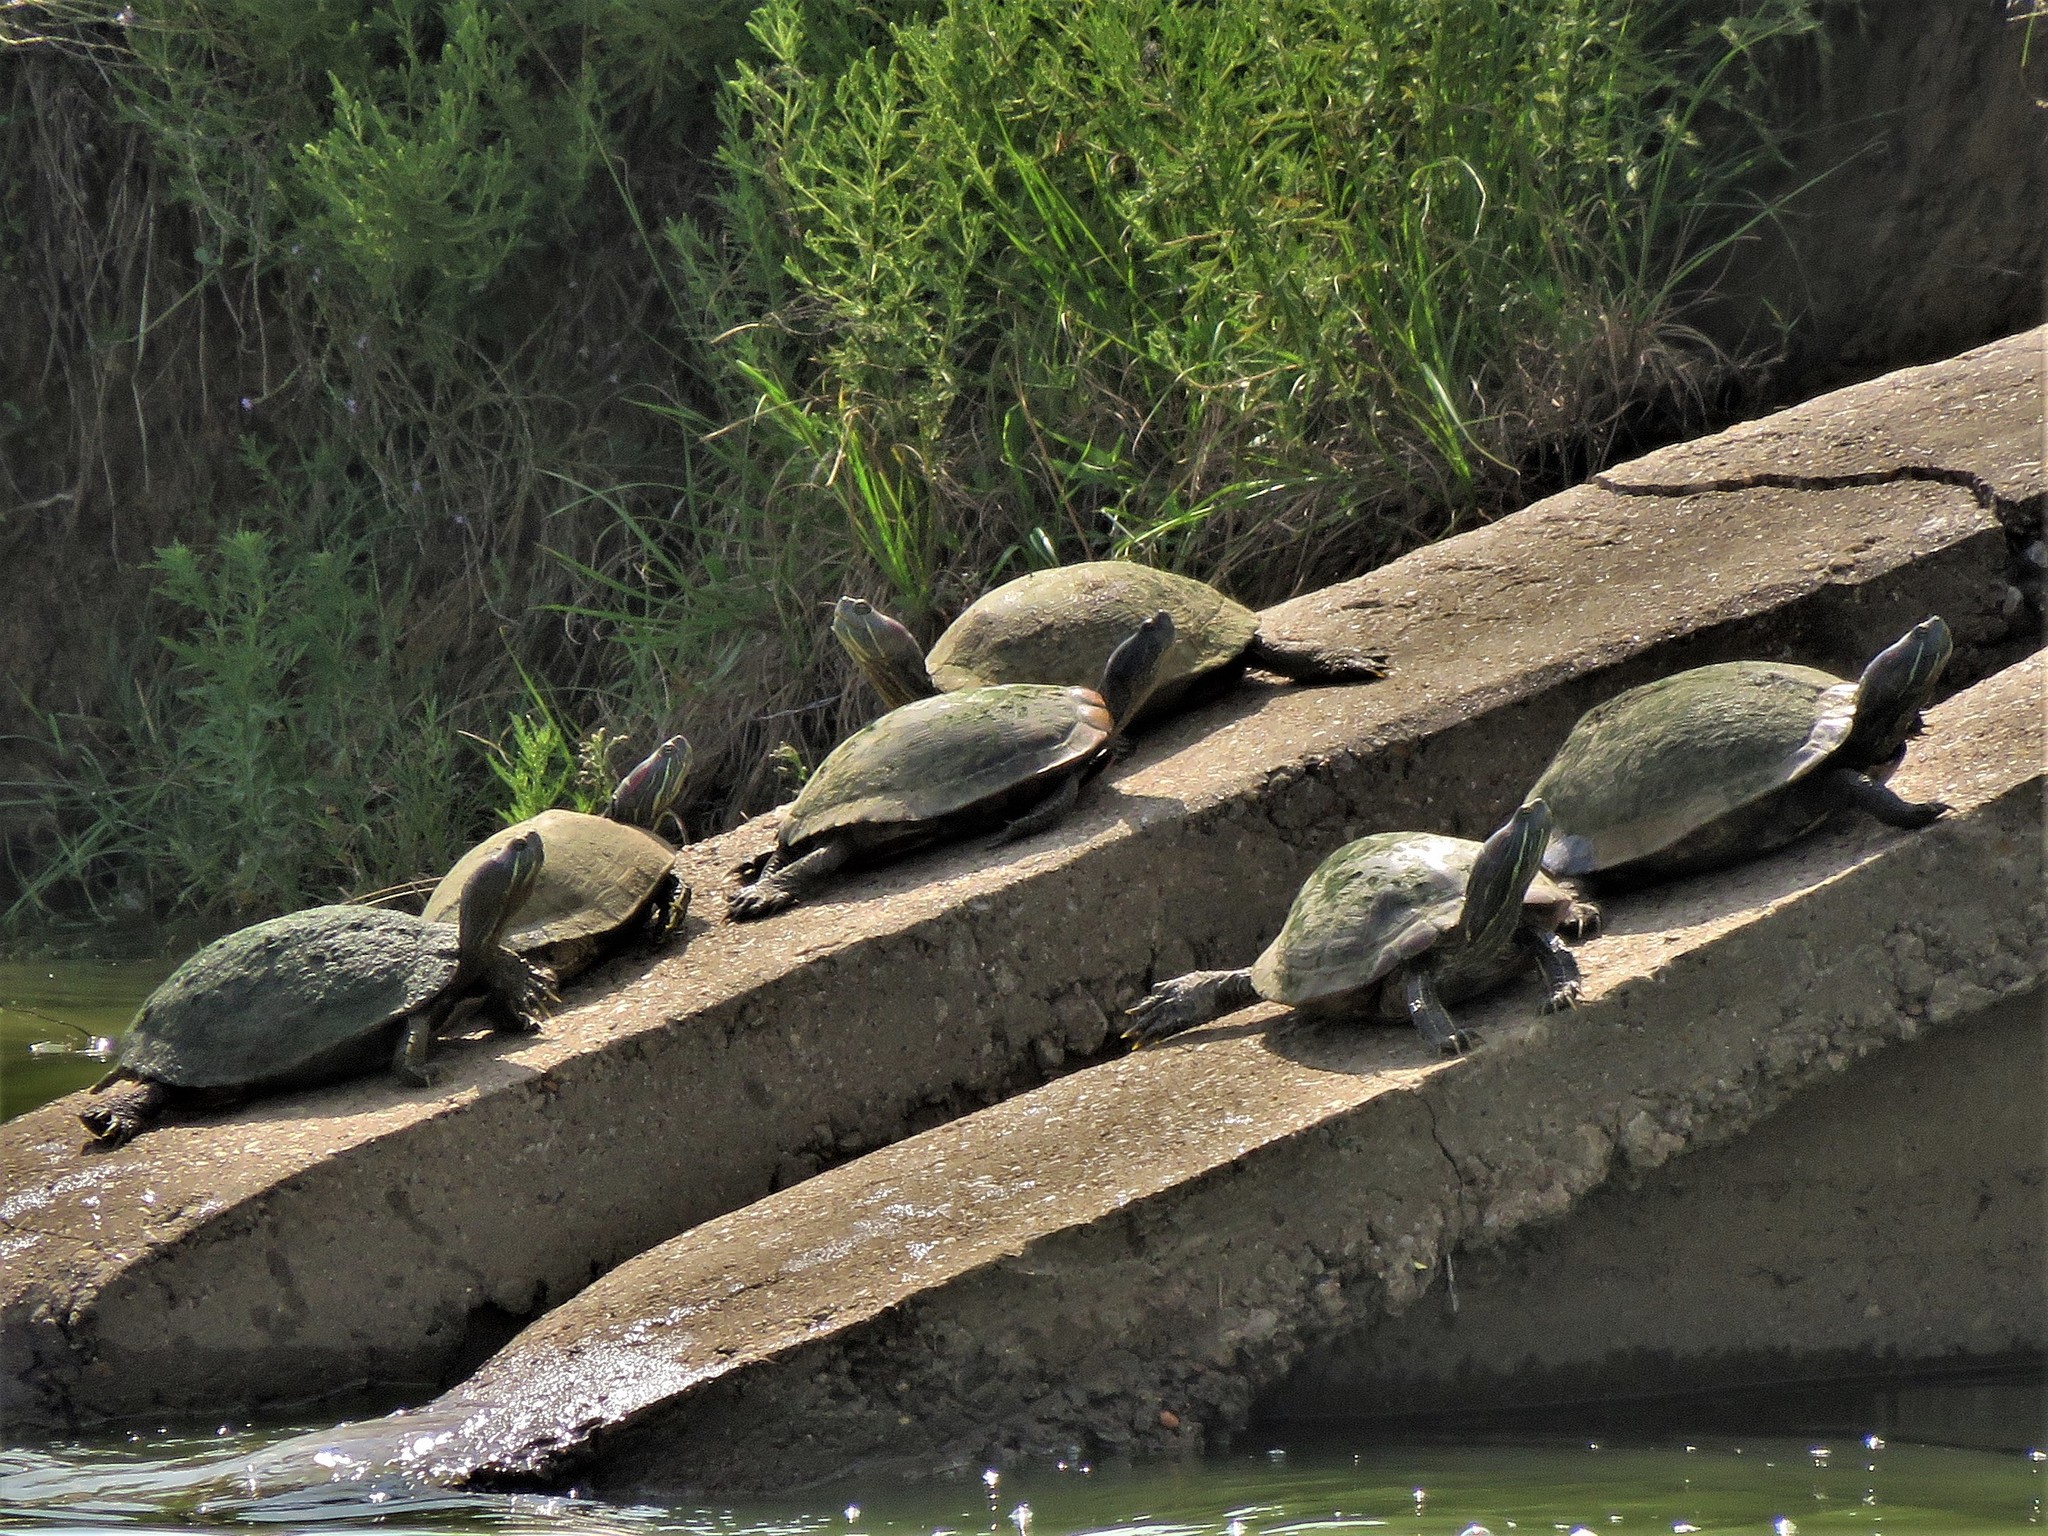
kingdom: Animalia
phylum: Chordata
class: Testudines
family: Emydidae
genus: Trachemys
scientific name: Trachemys scripta
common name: Slider
